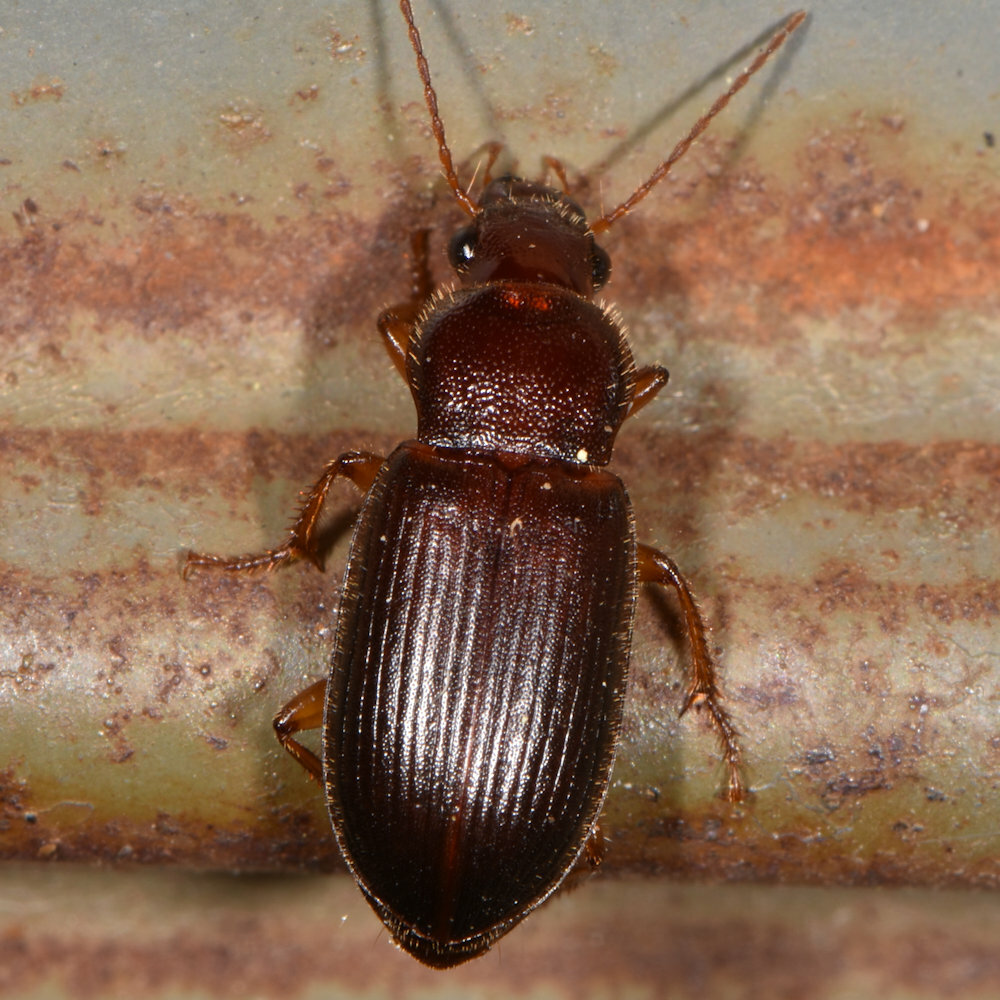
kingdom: Animalia
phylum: Arthropoda
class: Insecta
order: Coleoptera
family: Carabidae
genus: Ophonus
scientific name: Ophonus puncticeps
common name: Puncture-headed harp ground beetle
